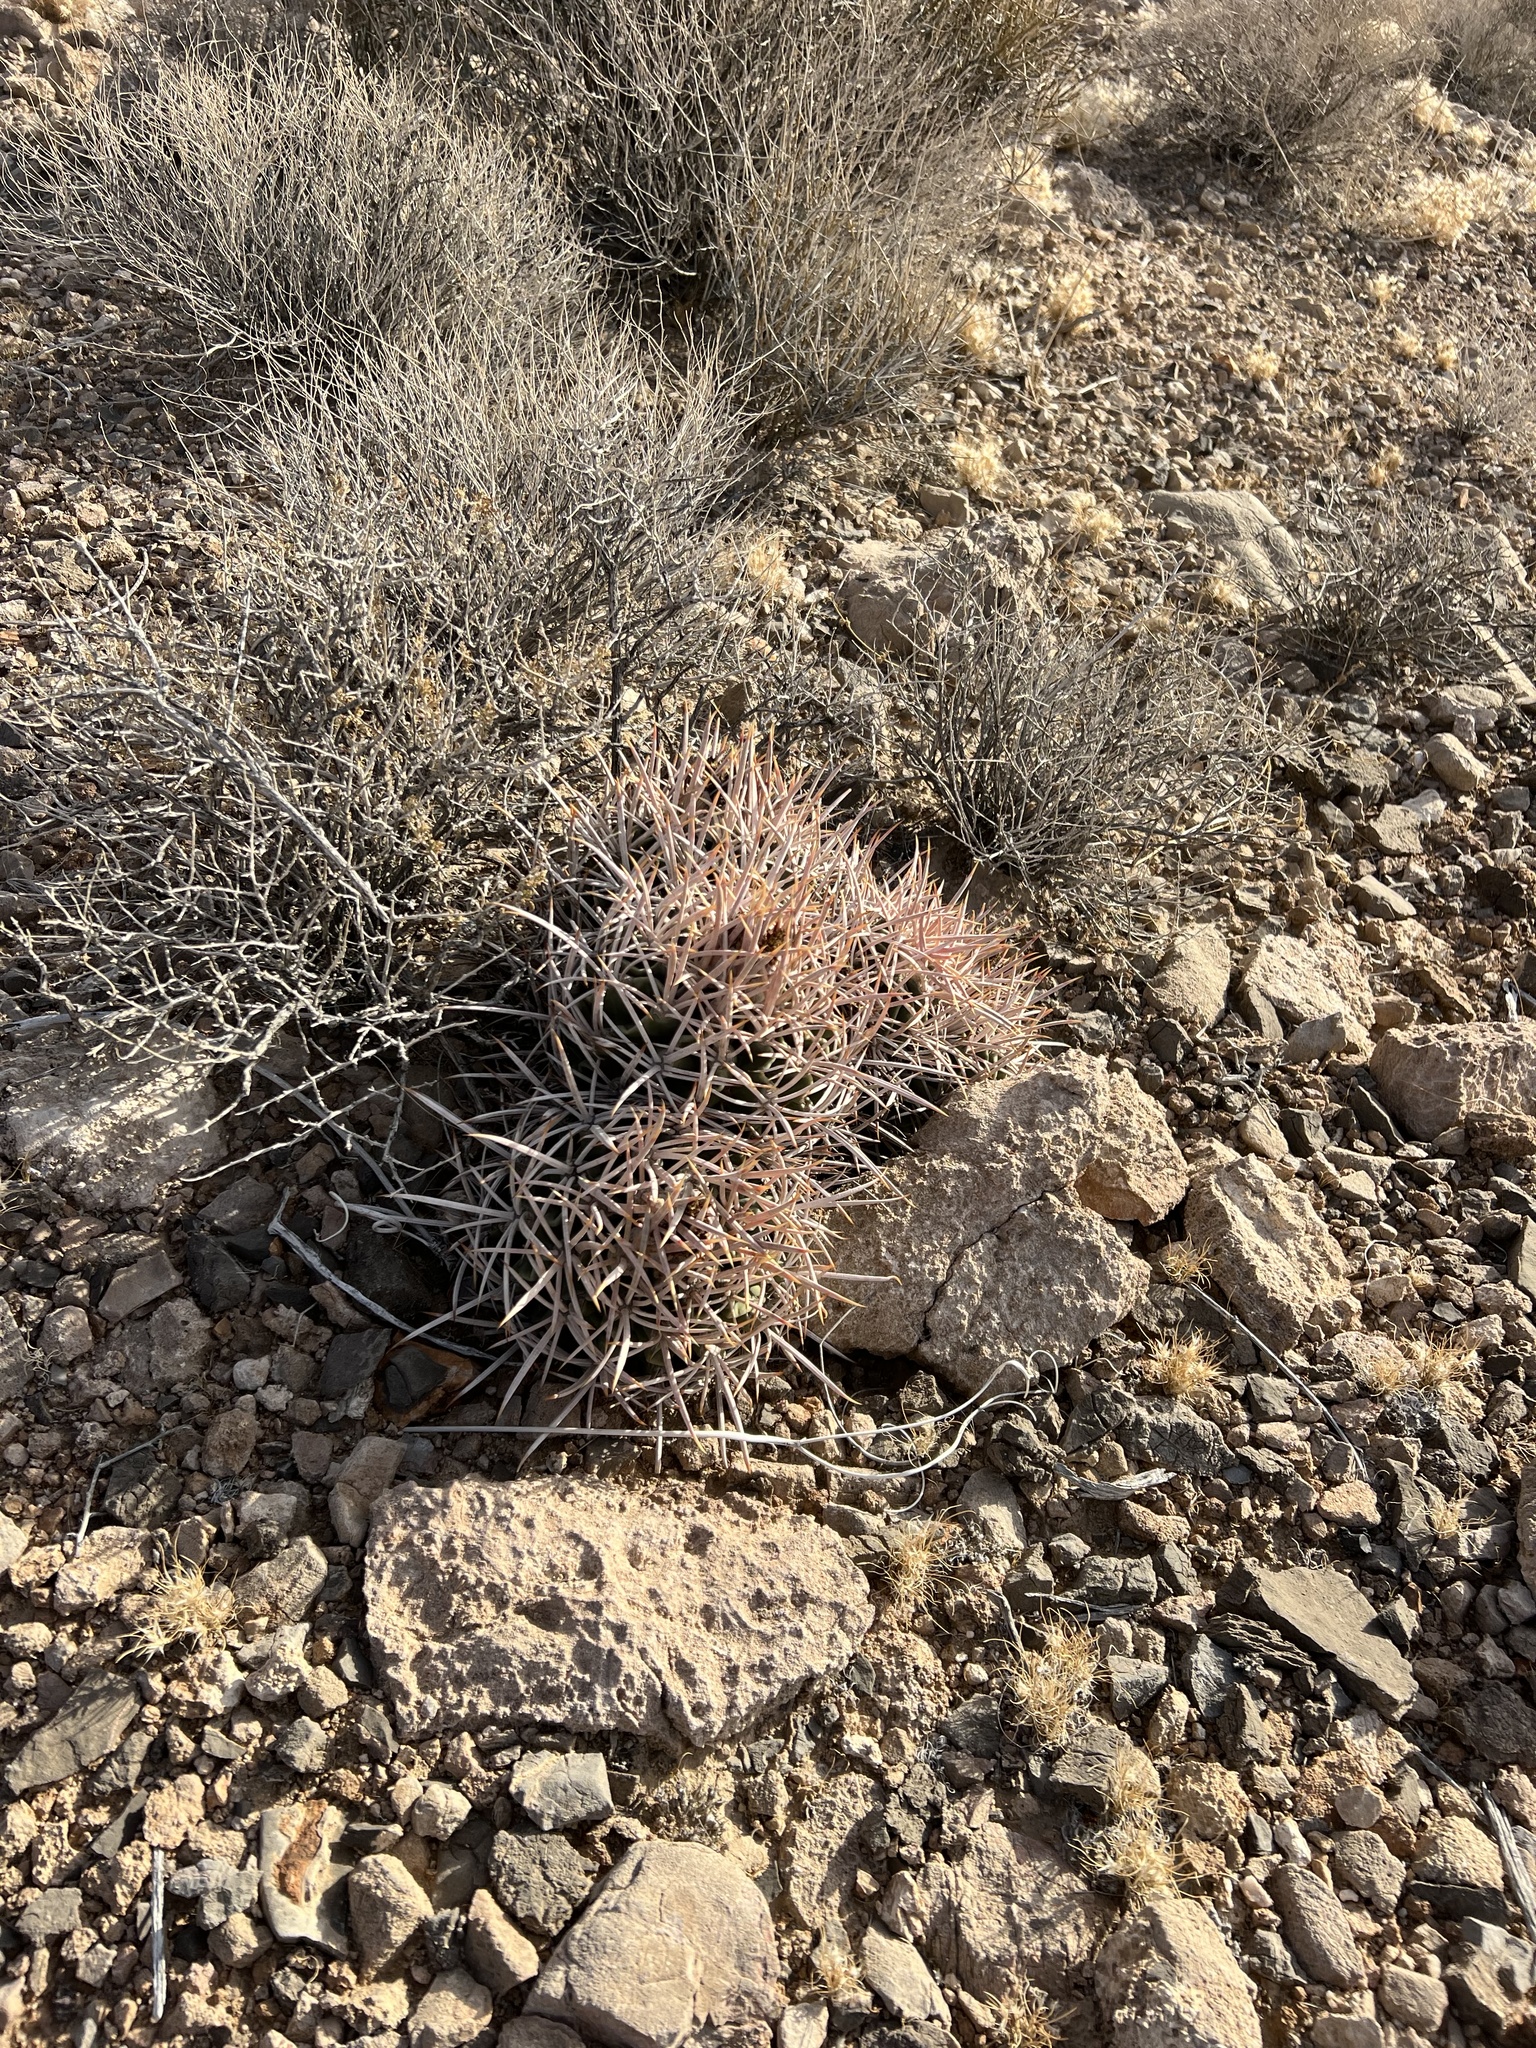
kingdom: Plantae
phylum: Tracheophyta
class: Magnoliopsida
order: Caryophyllales
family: Cactaceae
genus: Echinocactus
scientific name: Echinocactus polycephalus
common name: Cottontop cactus
